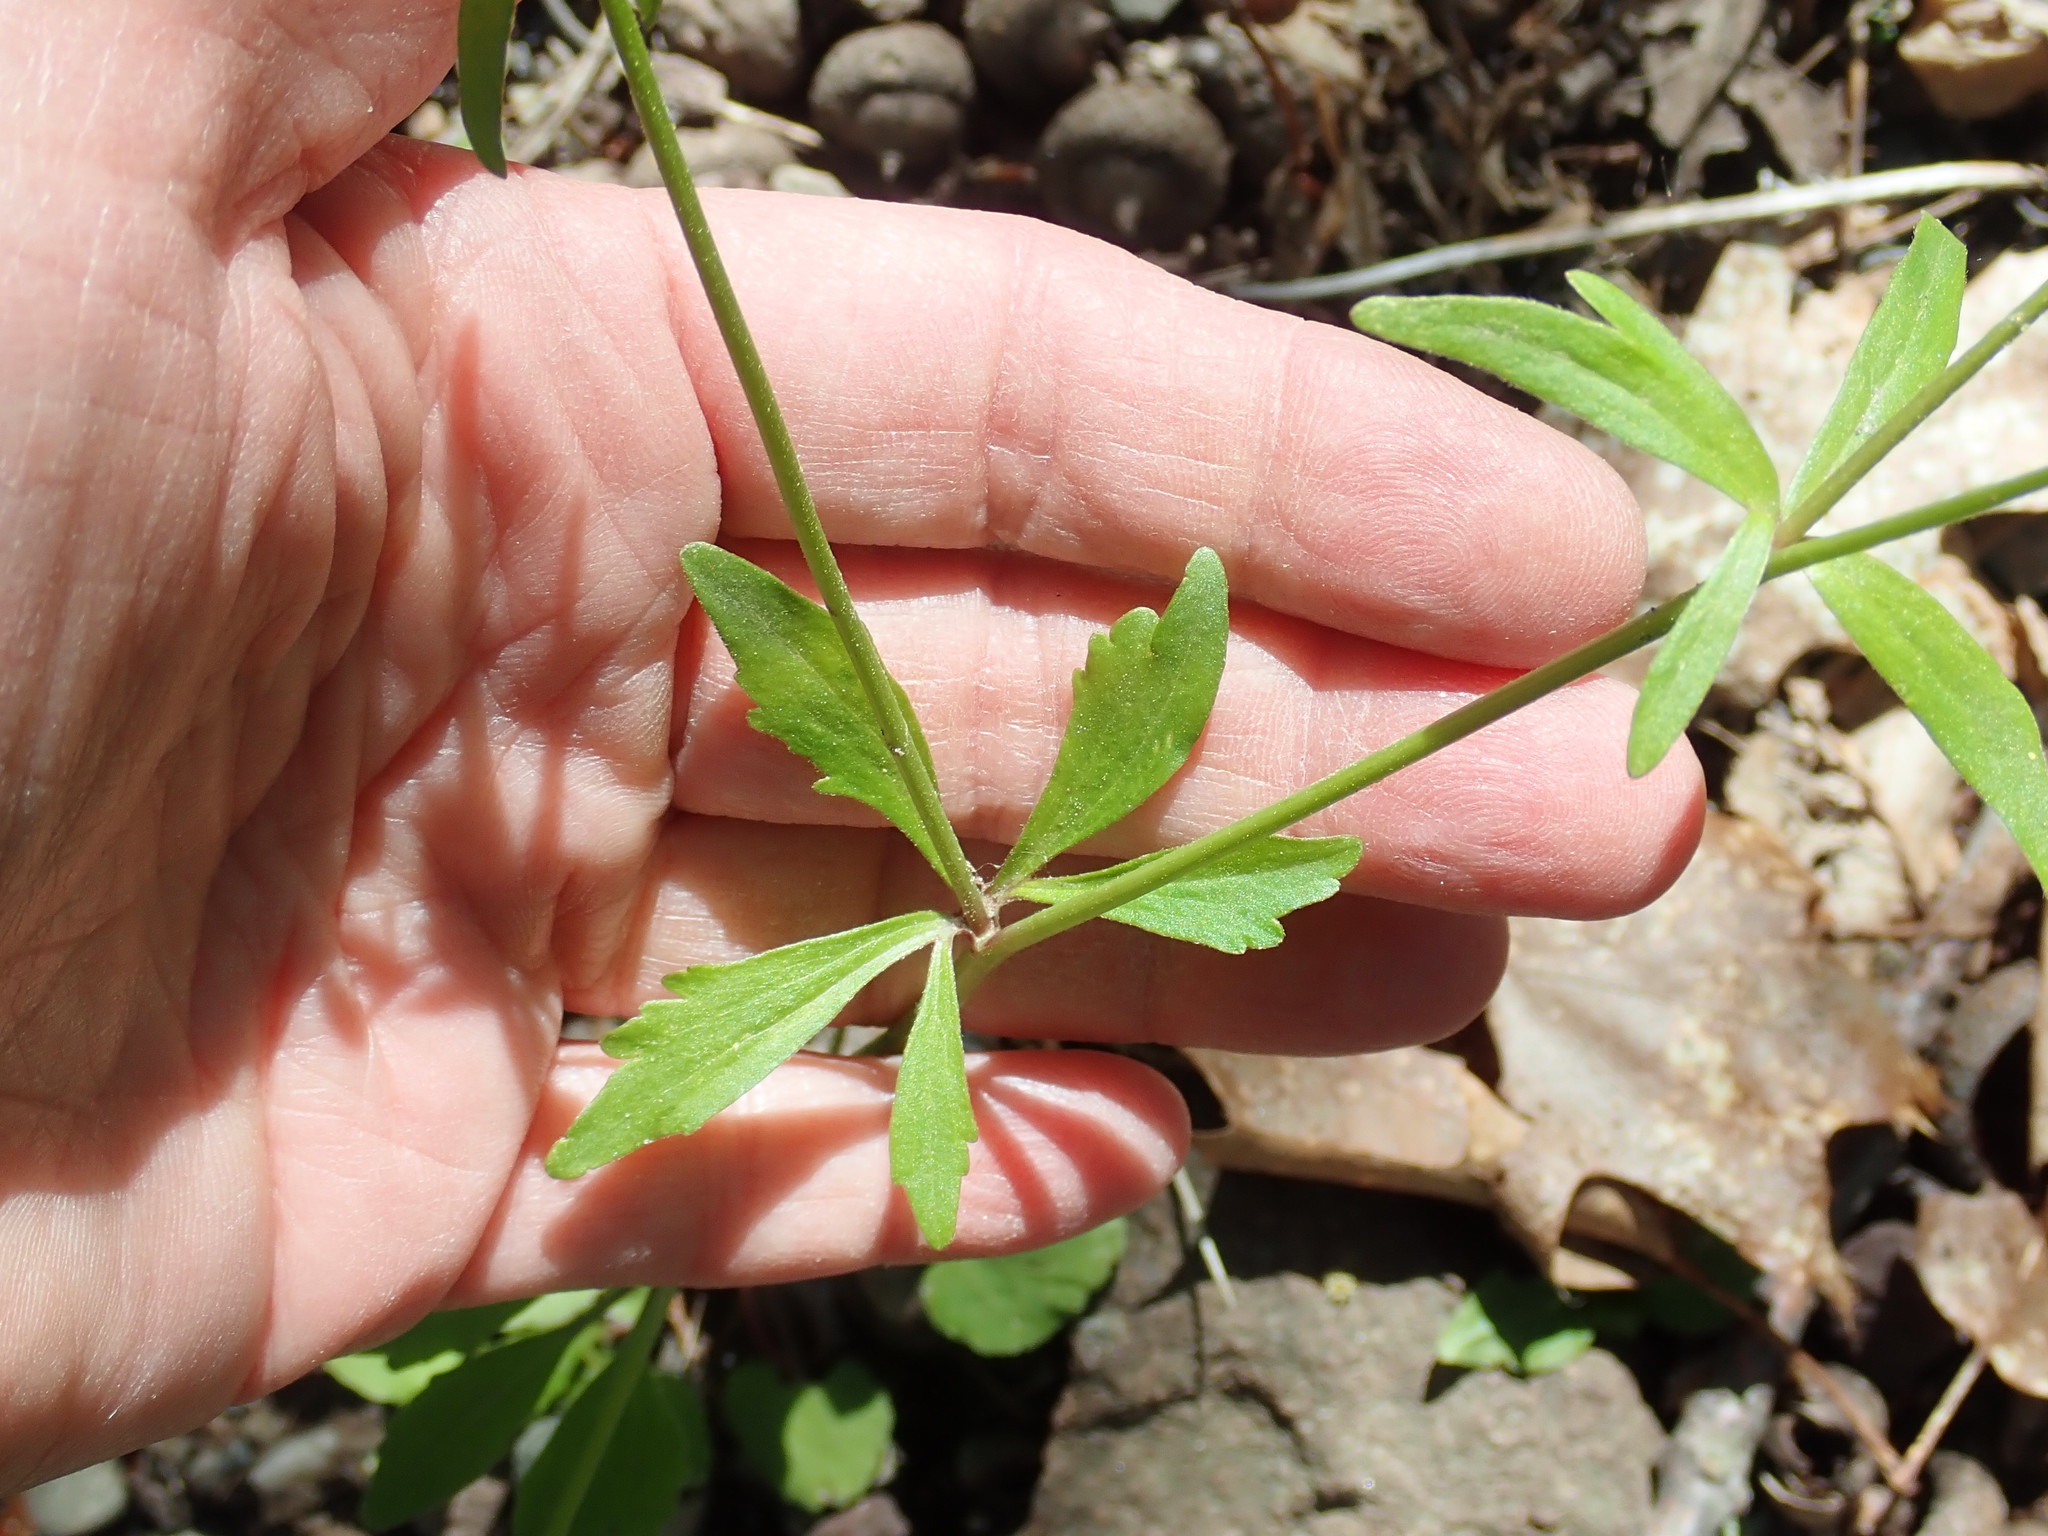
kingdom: Plantae
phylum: Tracheophyta
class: Magnoliopsida
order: Ranunculales
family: Ranunculaceae
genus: Ranunculus
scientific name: Ranunculus abortivus
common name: Early wood buttercup
